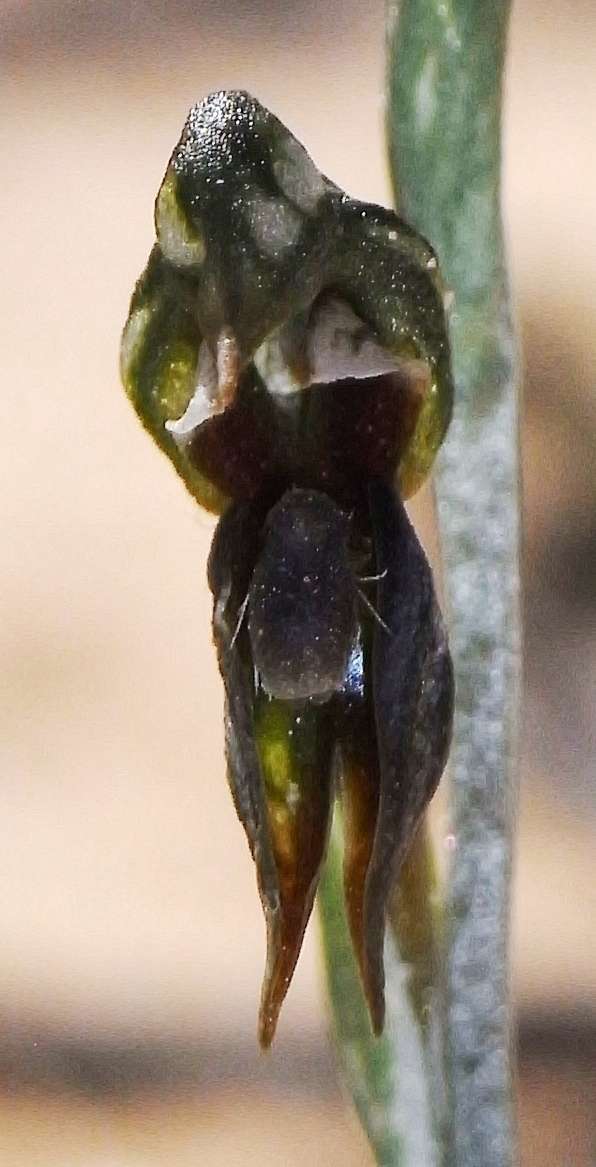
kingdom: Plantae
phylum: Tracheophyta
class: Liliopsida
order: Asparagales
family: Orchidaceae
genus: Pterostylis
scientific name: Pterostylis pusilla
